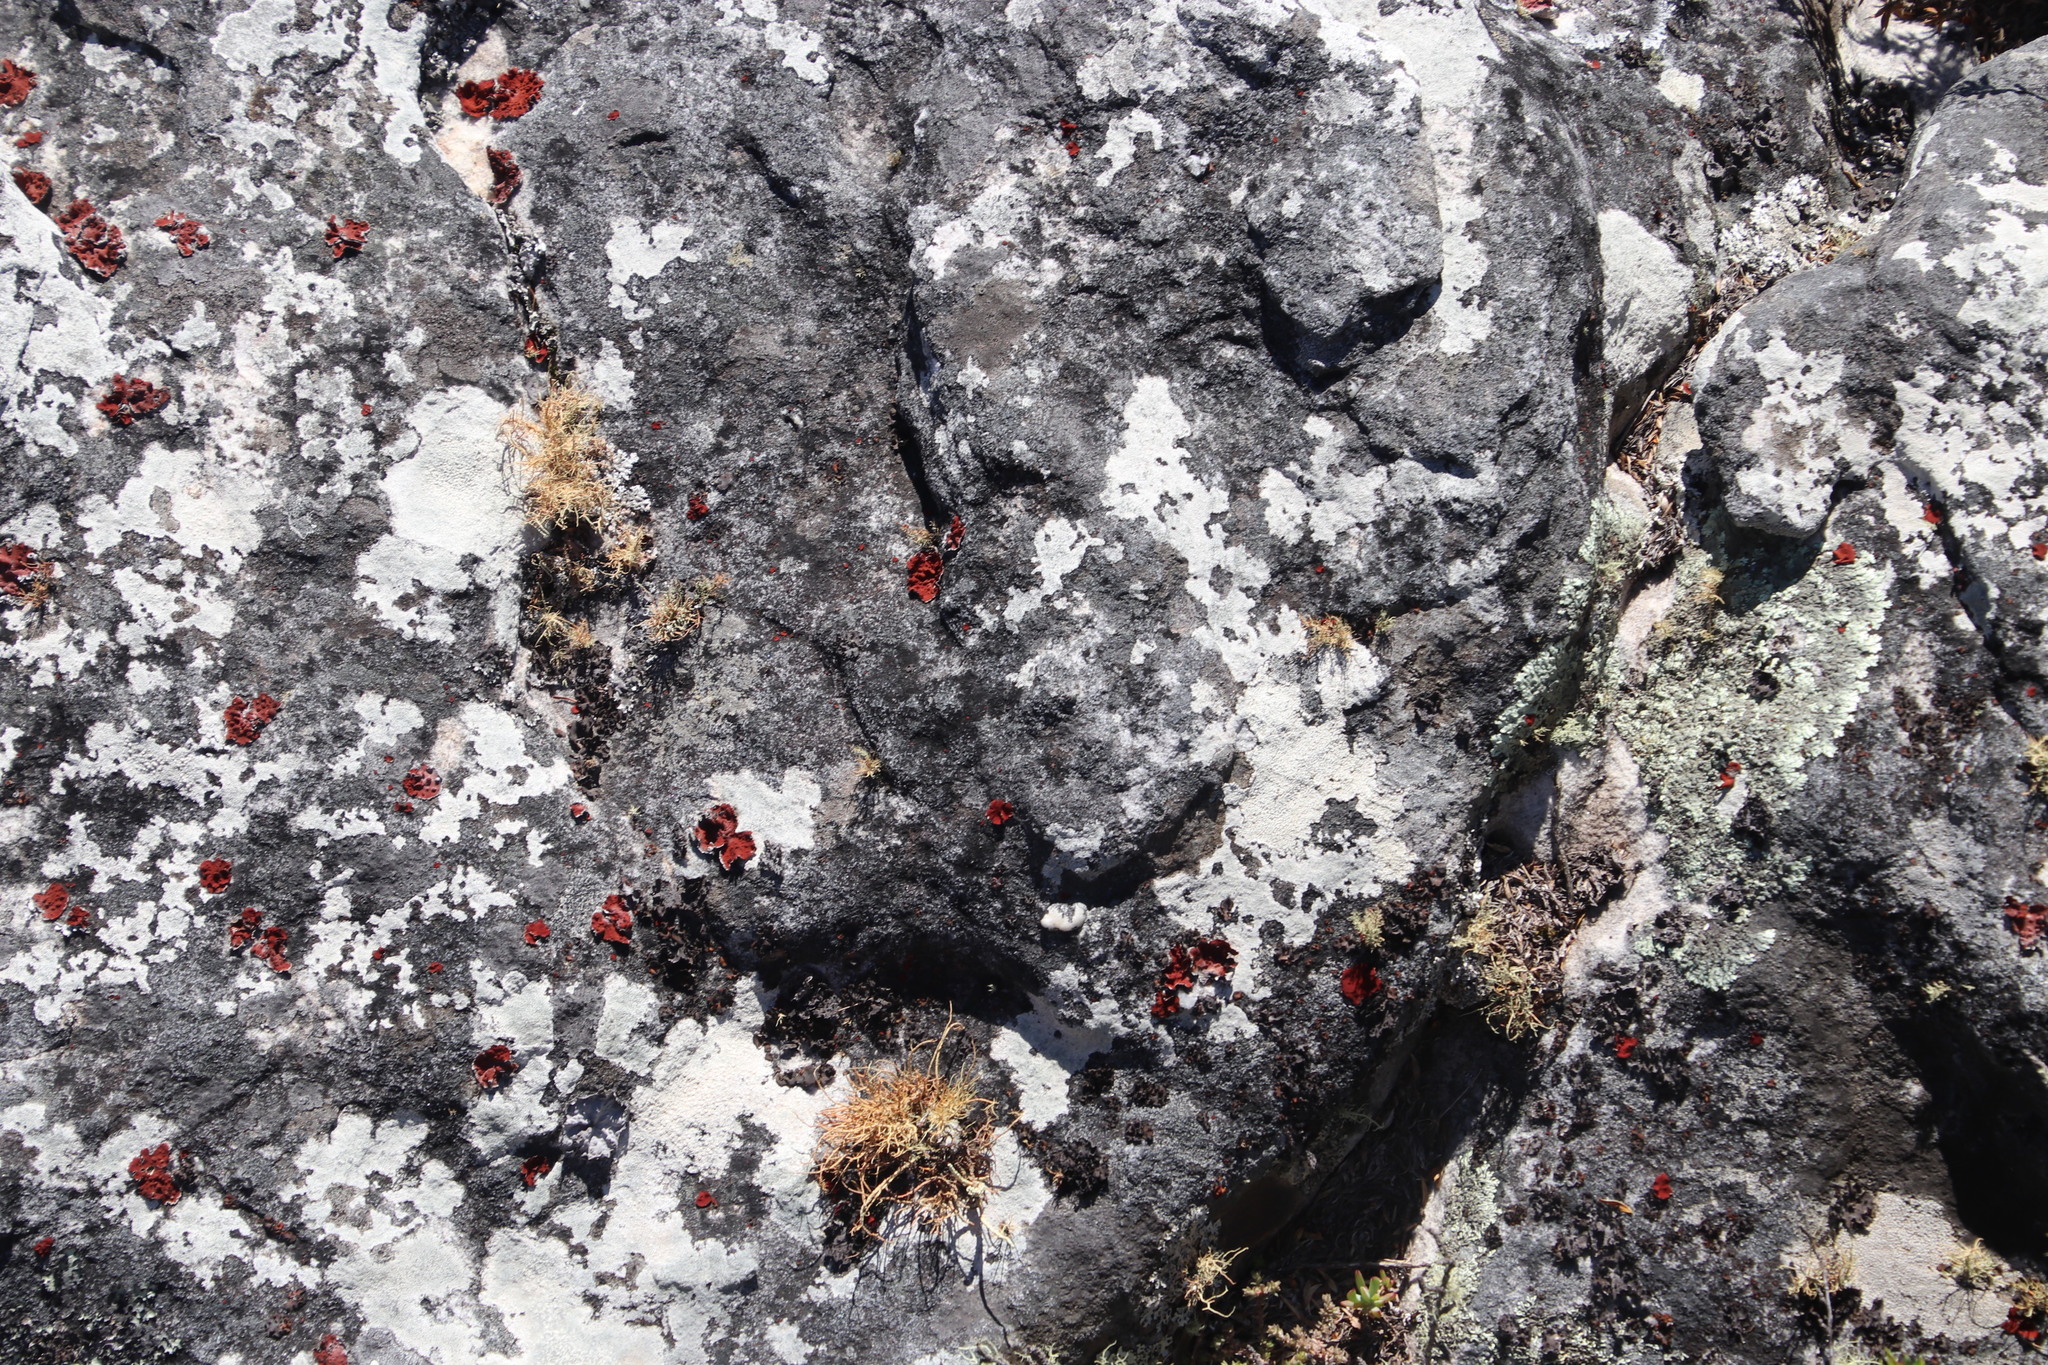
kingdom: Fungi
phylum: Ascomycota
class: Lecanoromycetes
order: Umbilicariales
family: Umbilicariaceae
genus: Lasallia
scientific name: Lasallia rubiginosa
